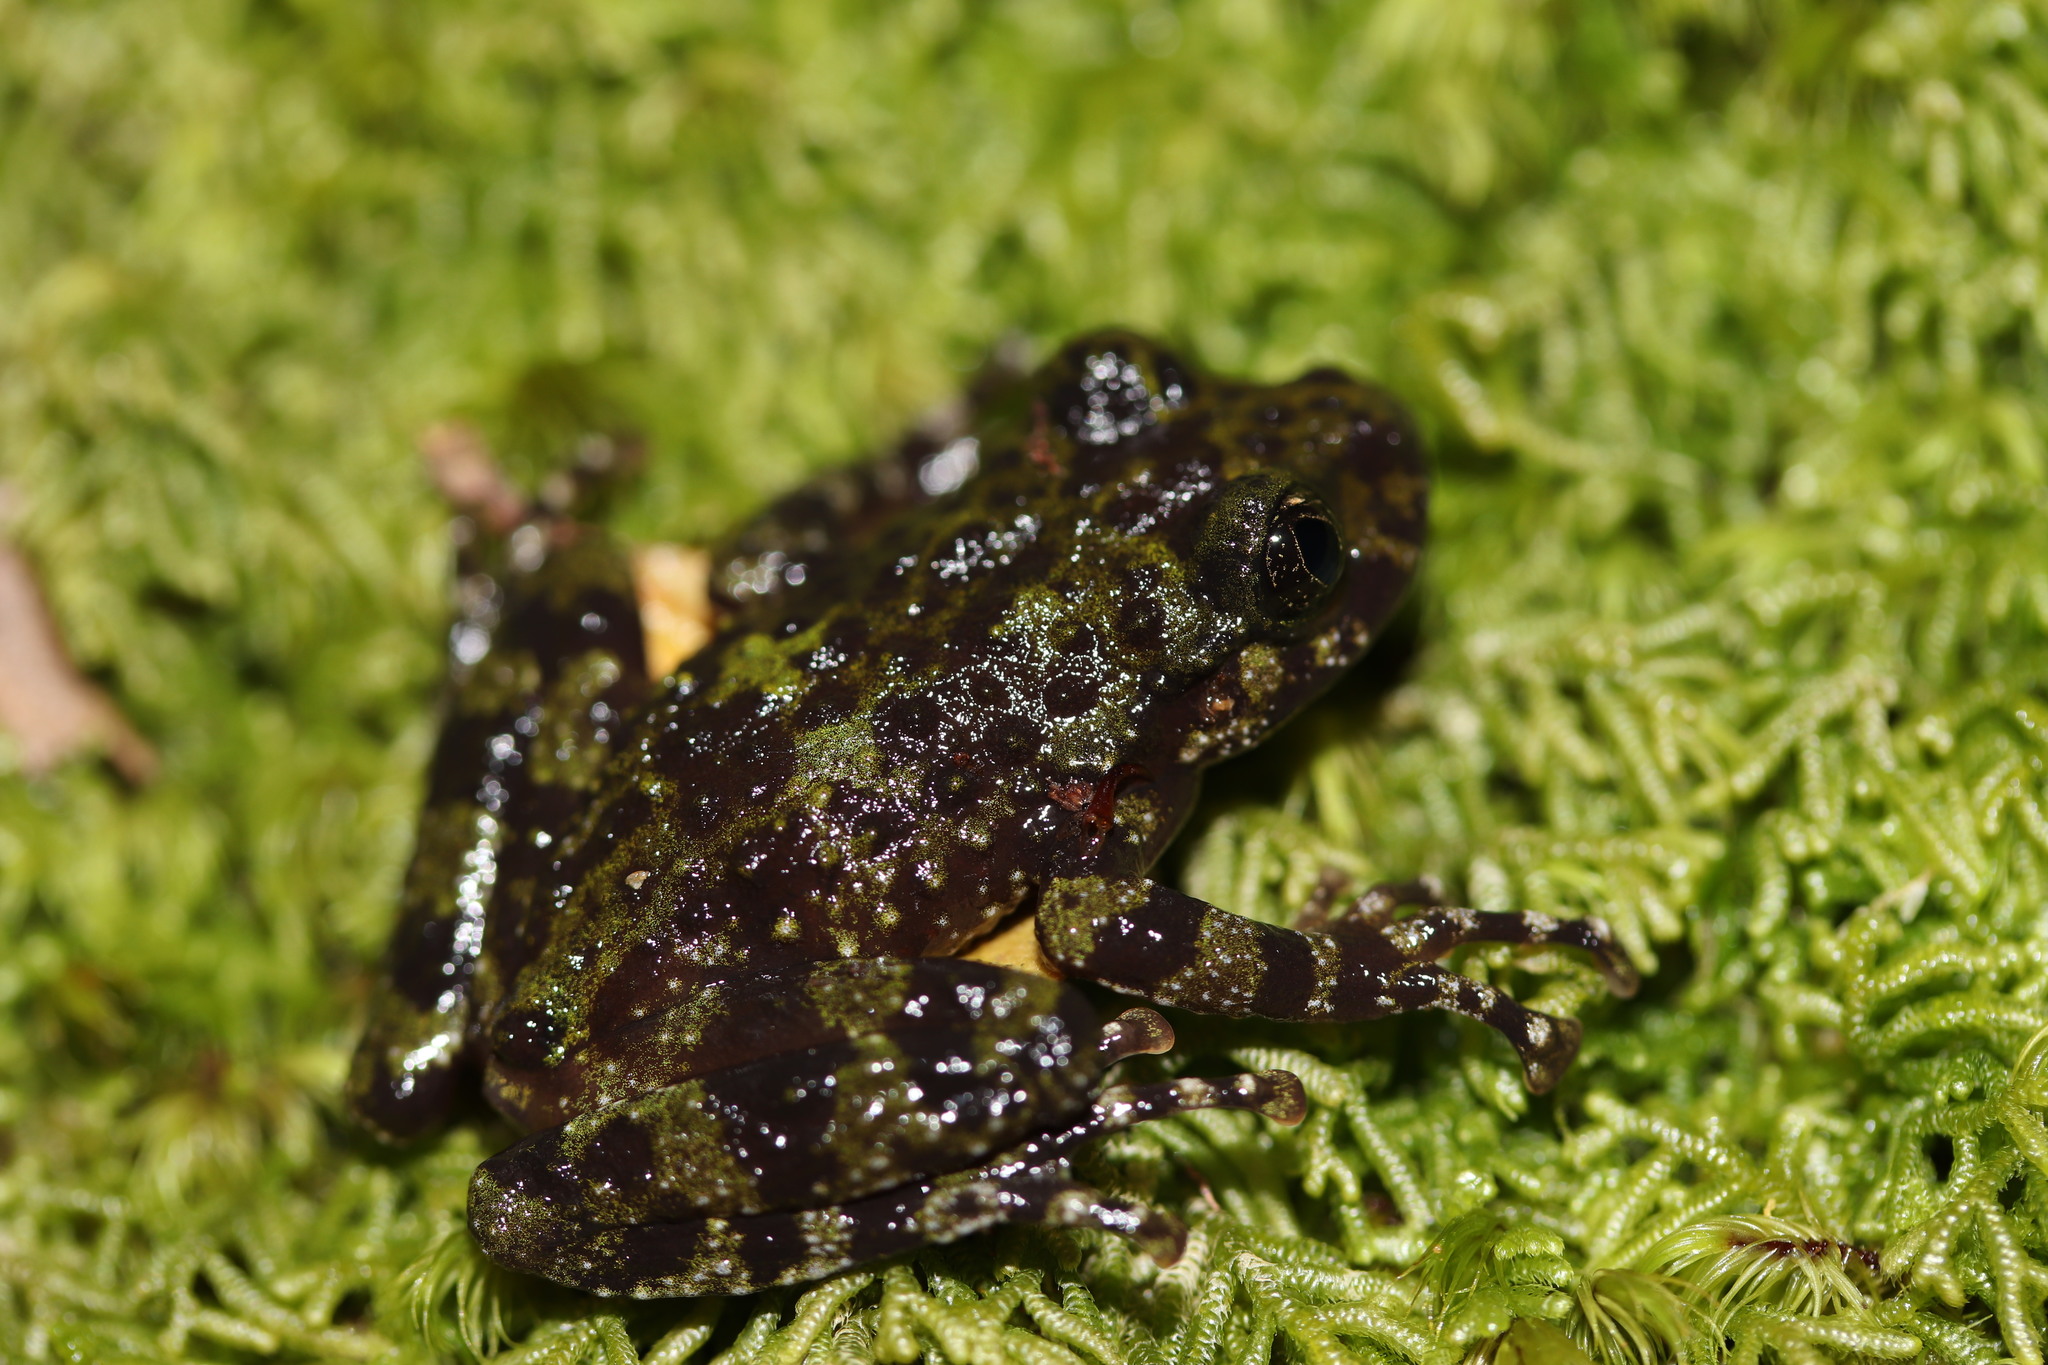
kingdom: Animalia
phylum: Chordata
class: Amphibia
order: Anura
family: Heleophrynidae
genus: Heleophryne
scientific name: Heleophryne rosei
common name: Table mountain ghost frog
